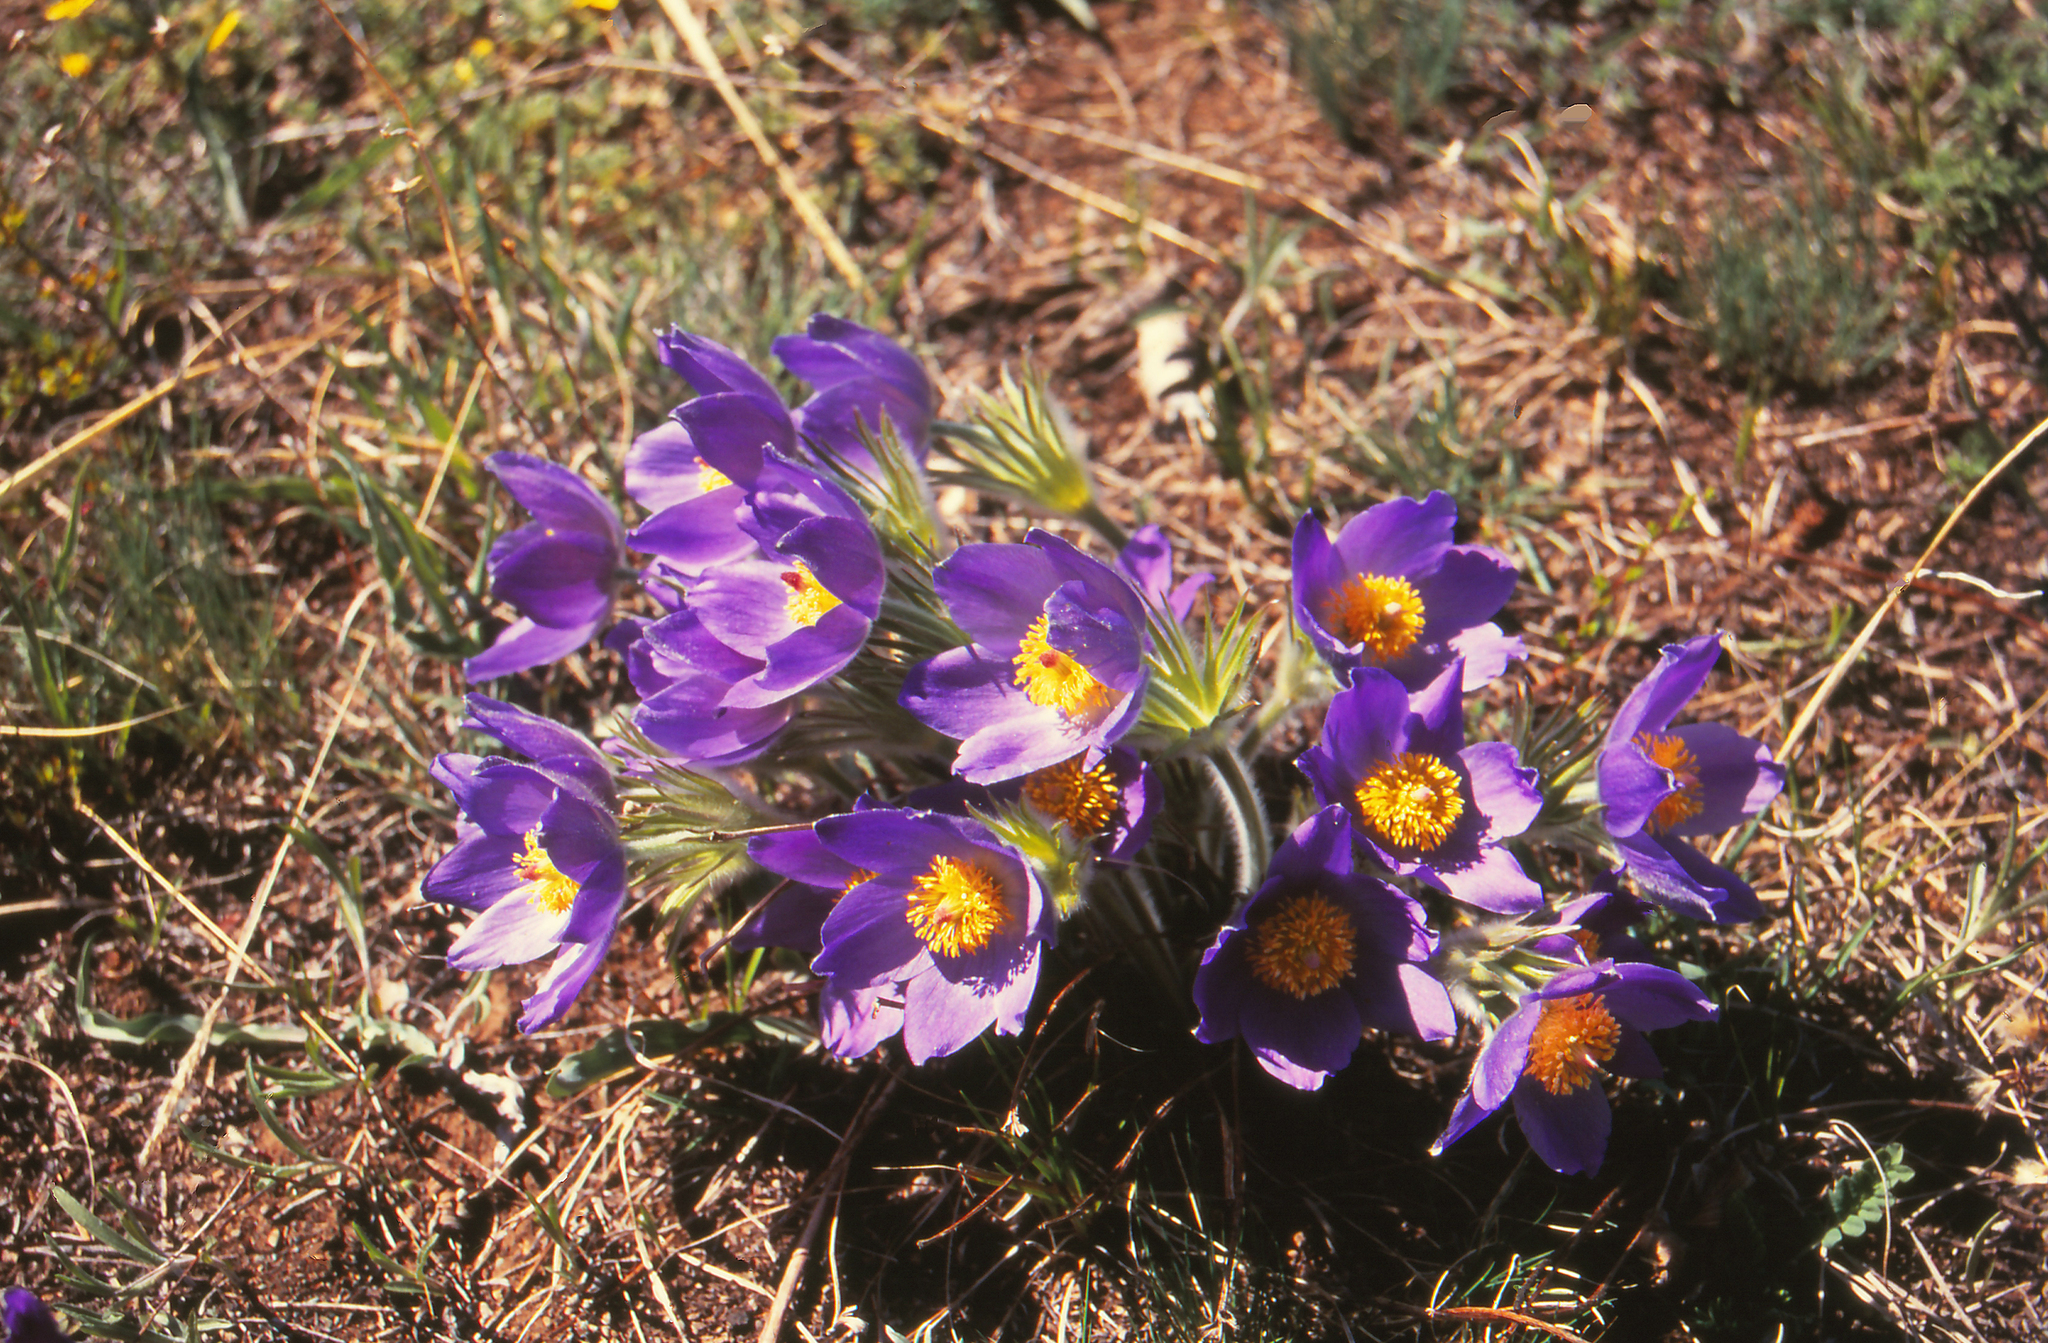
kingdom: Plantae
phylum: Tracheophyta
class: Magnoliopsida
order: Ranunculales
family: Ranunculaceae
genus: Pulsatilla
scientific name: Pulsatilla patens
